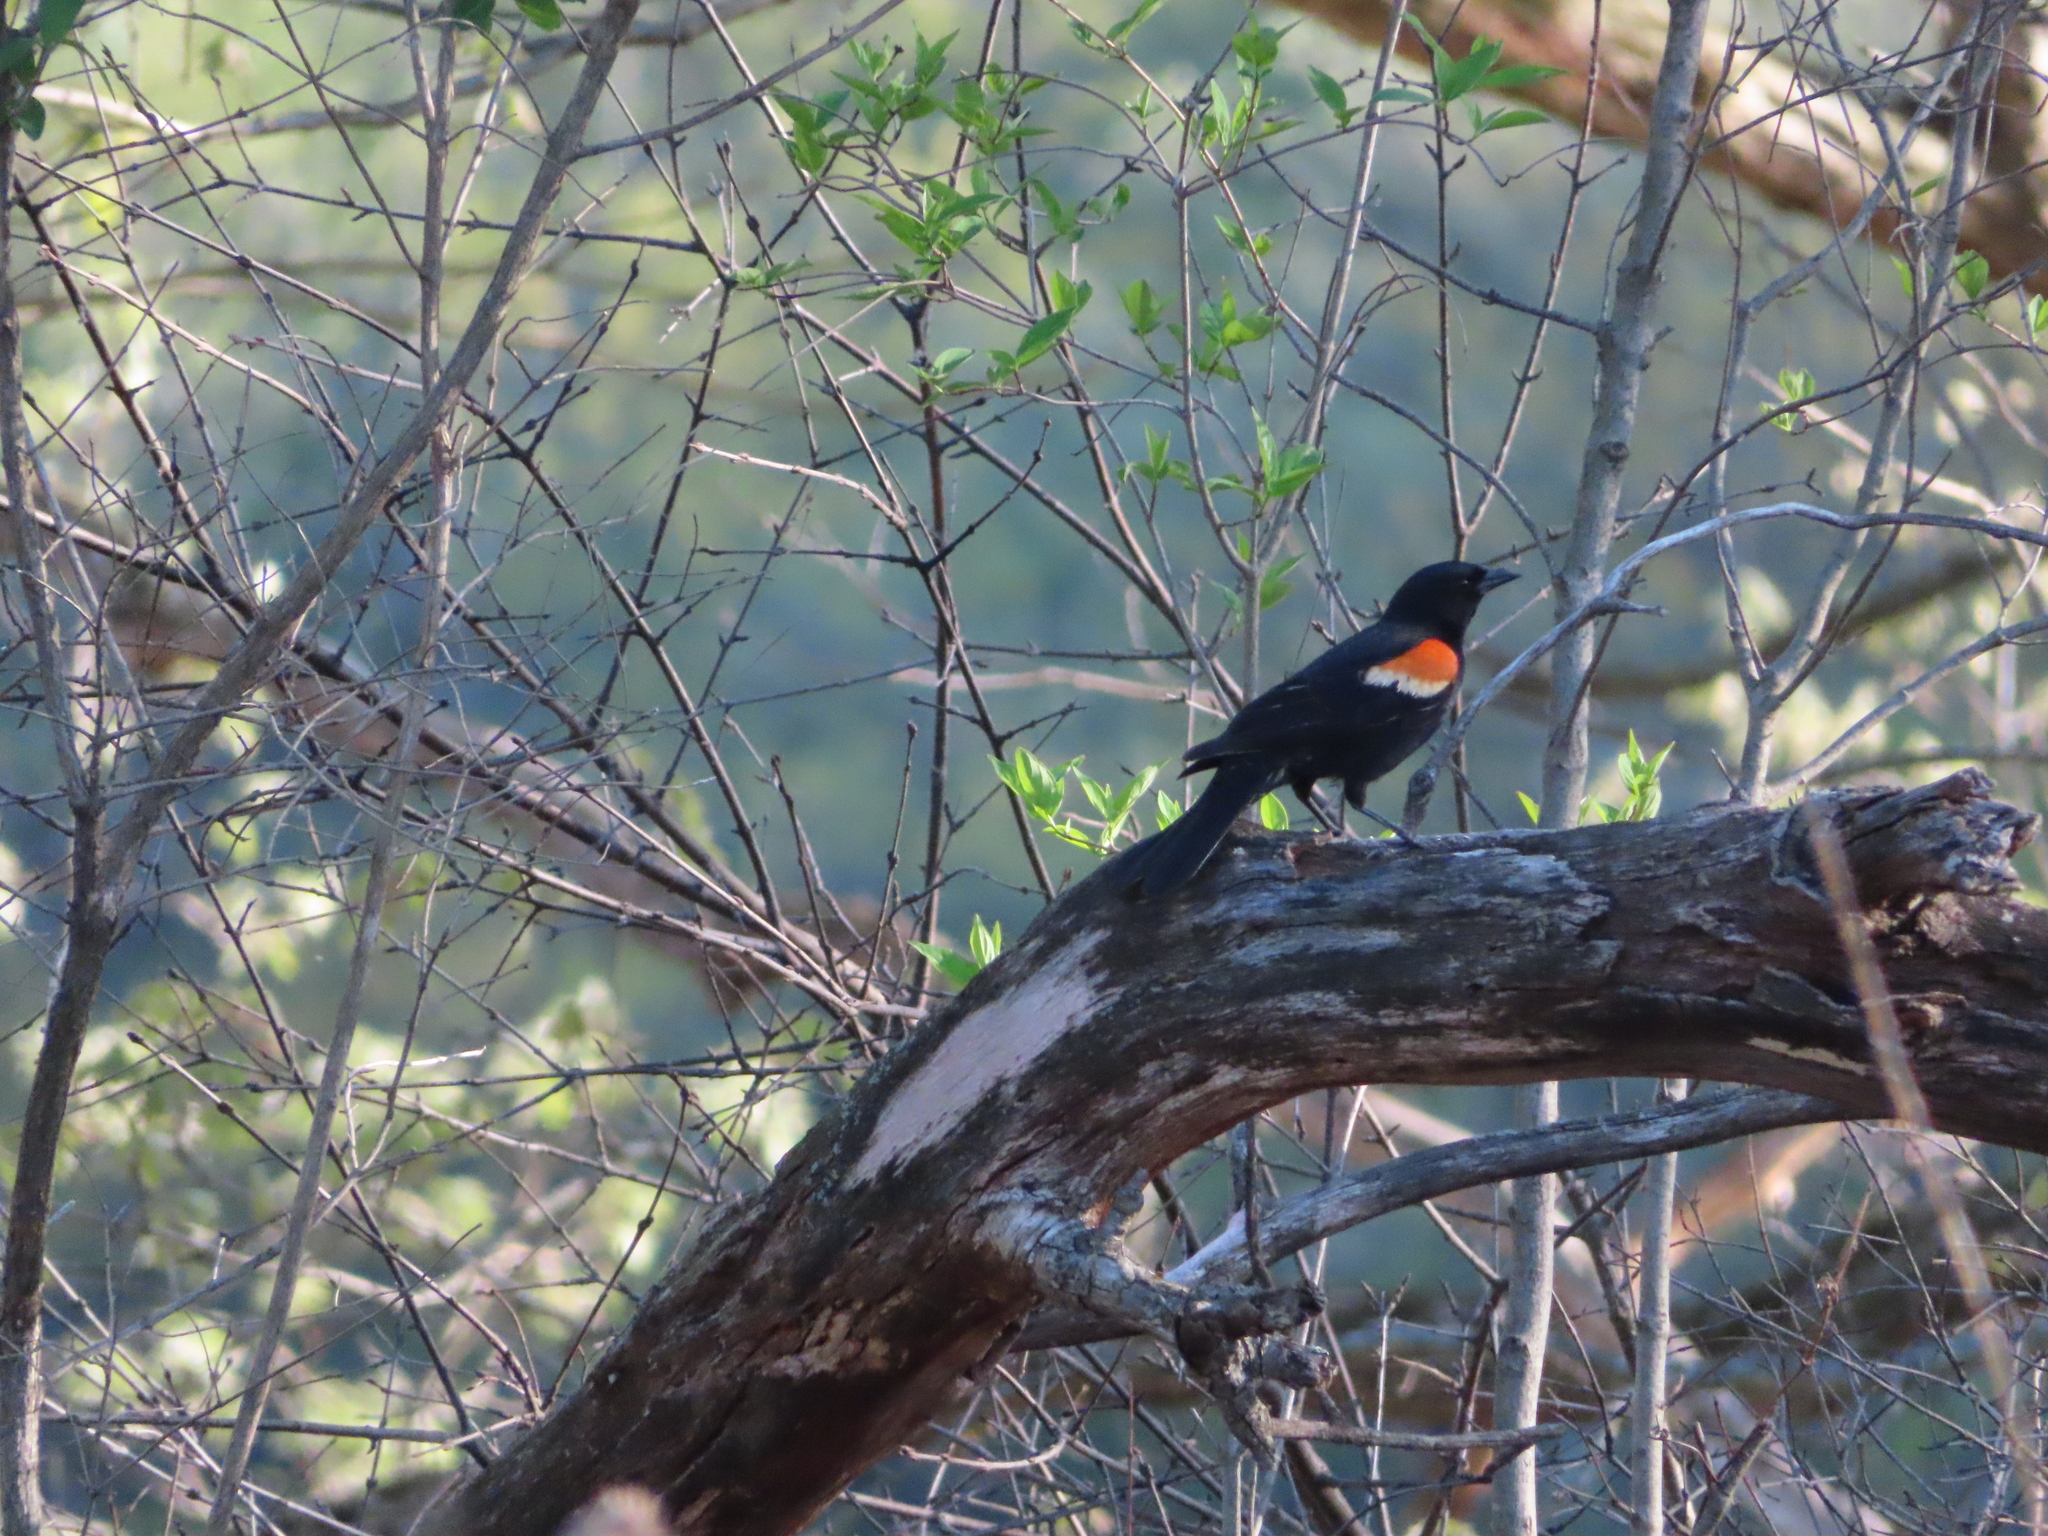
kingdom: Animalia
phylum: Chordata
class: Aves
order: Passeriformes
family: Icteridae
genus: Agelaius
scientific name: Agelaius phoeniceus
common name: Red-winged blackbird
